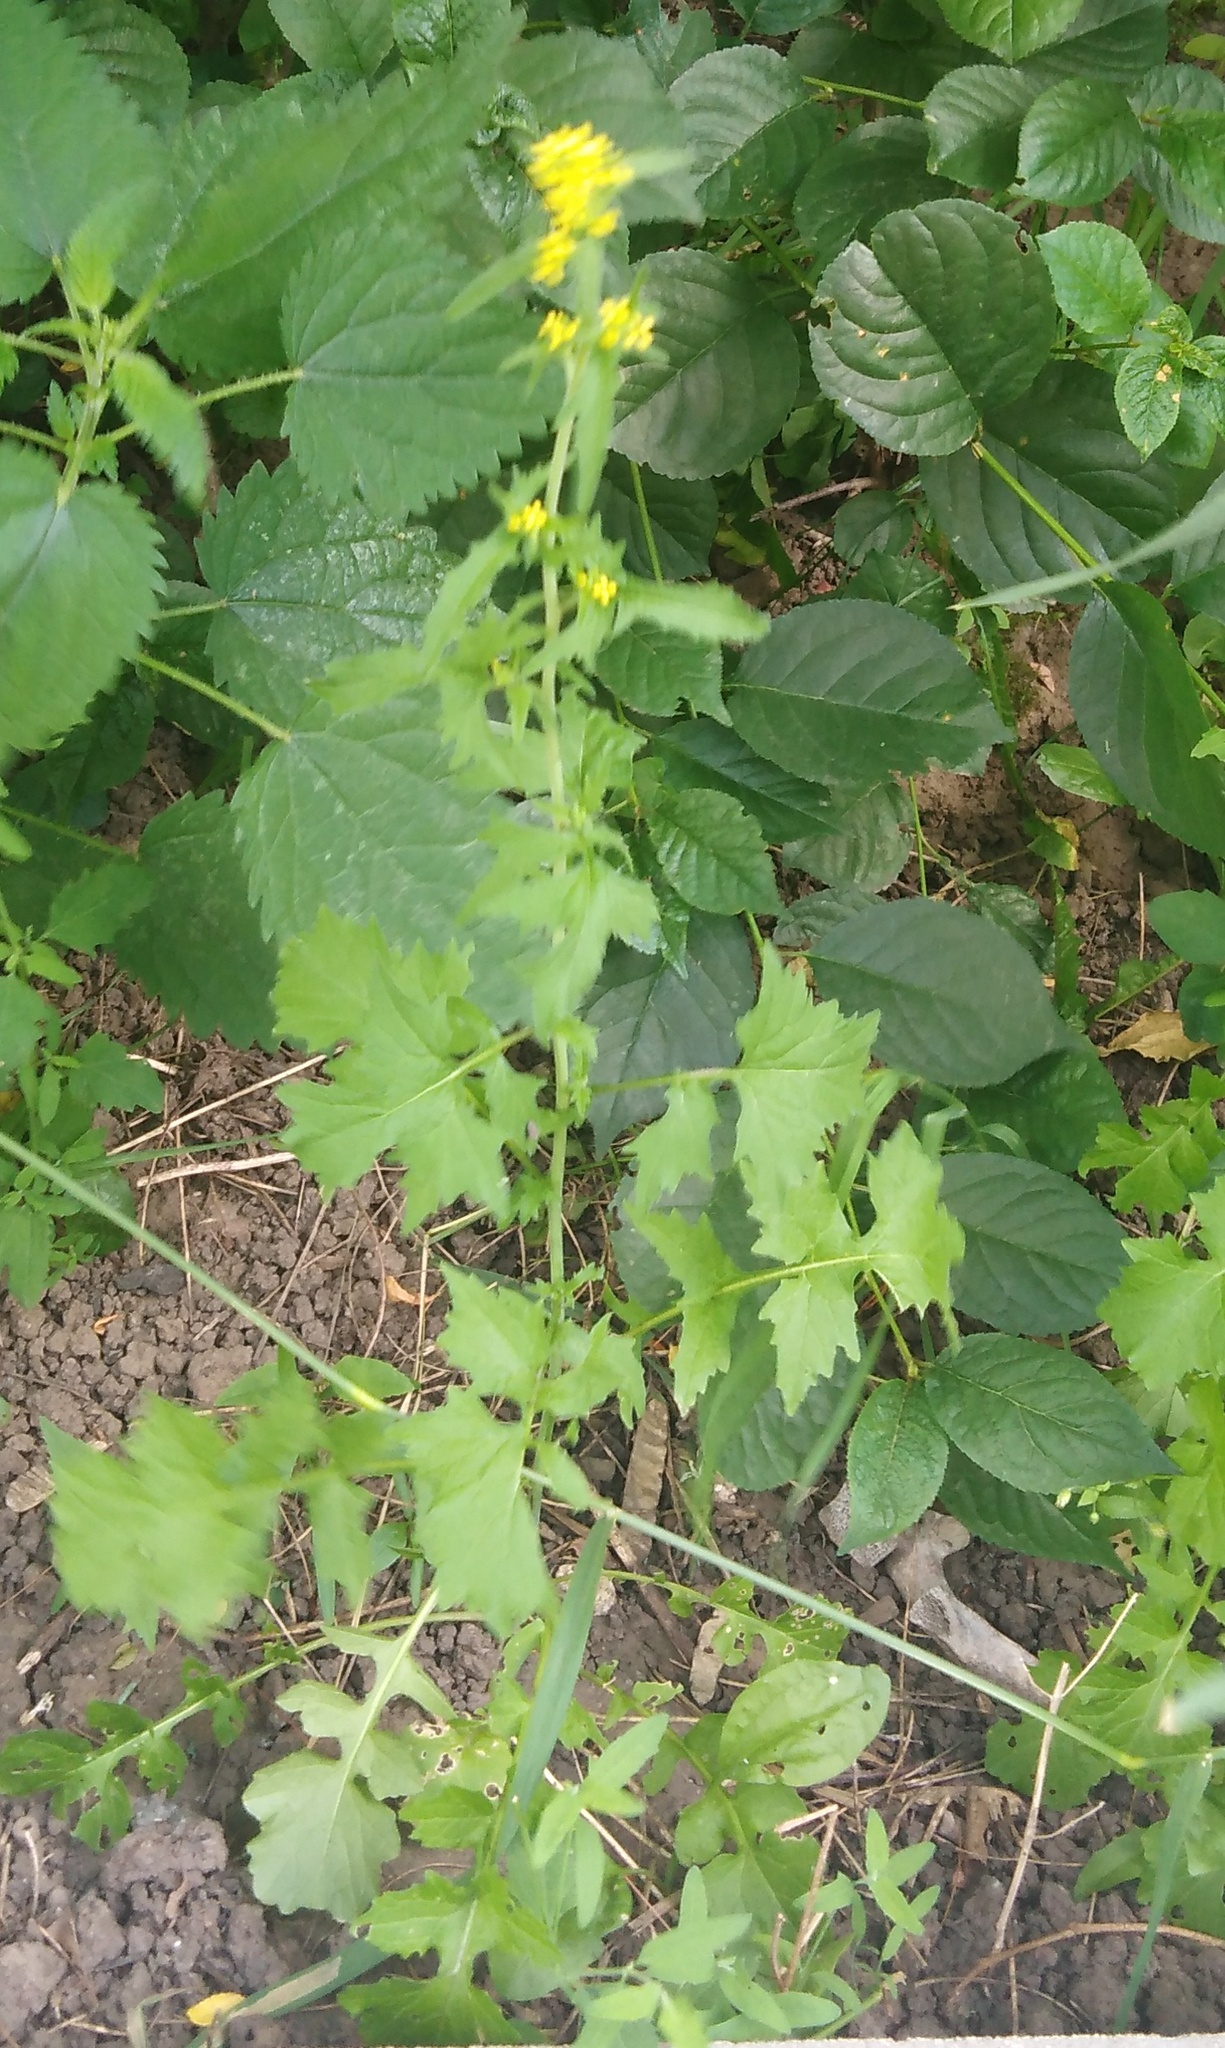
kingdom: Plantae
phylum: Tracheophyta
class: Magnoliopsida
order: Brassicales
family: Brassicaceae
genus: Sisymbrium
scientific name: Sisymbrium officinale
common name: Hedge mustard
